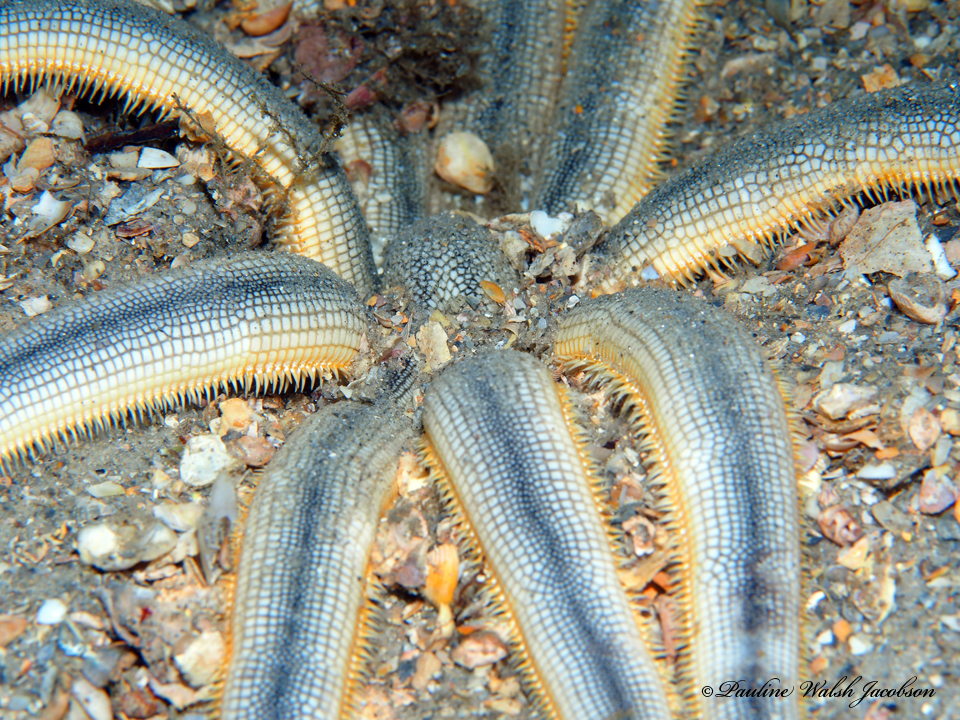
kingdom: Animalia
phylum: Echinodermata
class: Asteroidea
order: Paxillosida
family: Luidiidae
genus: Luidia
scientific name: Luidia senegalensis
